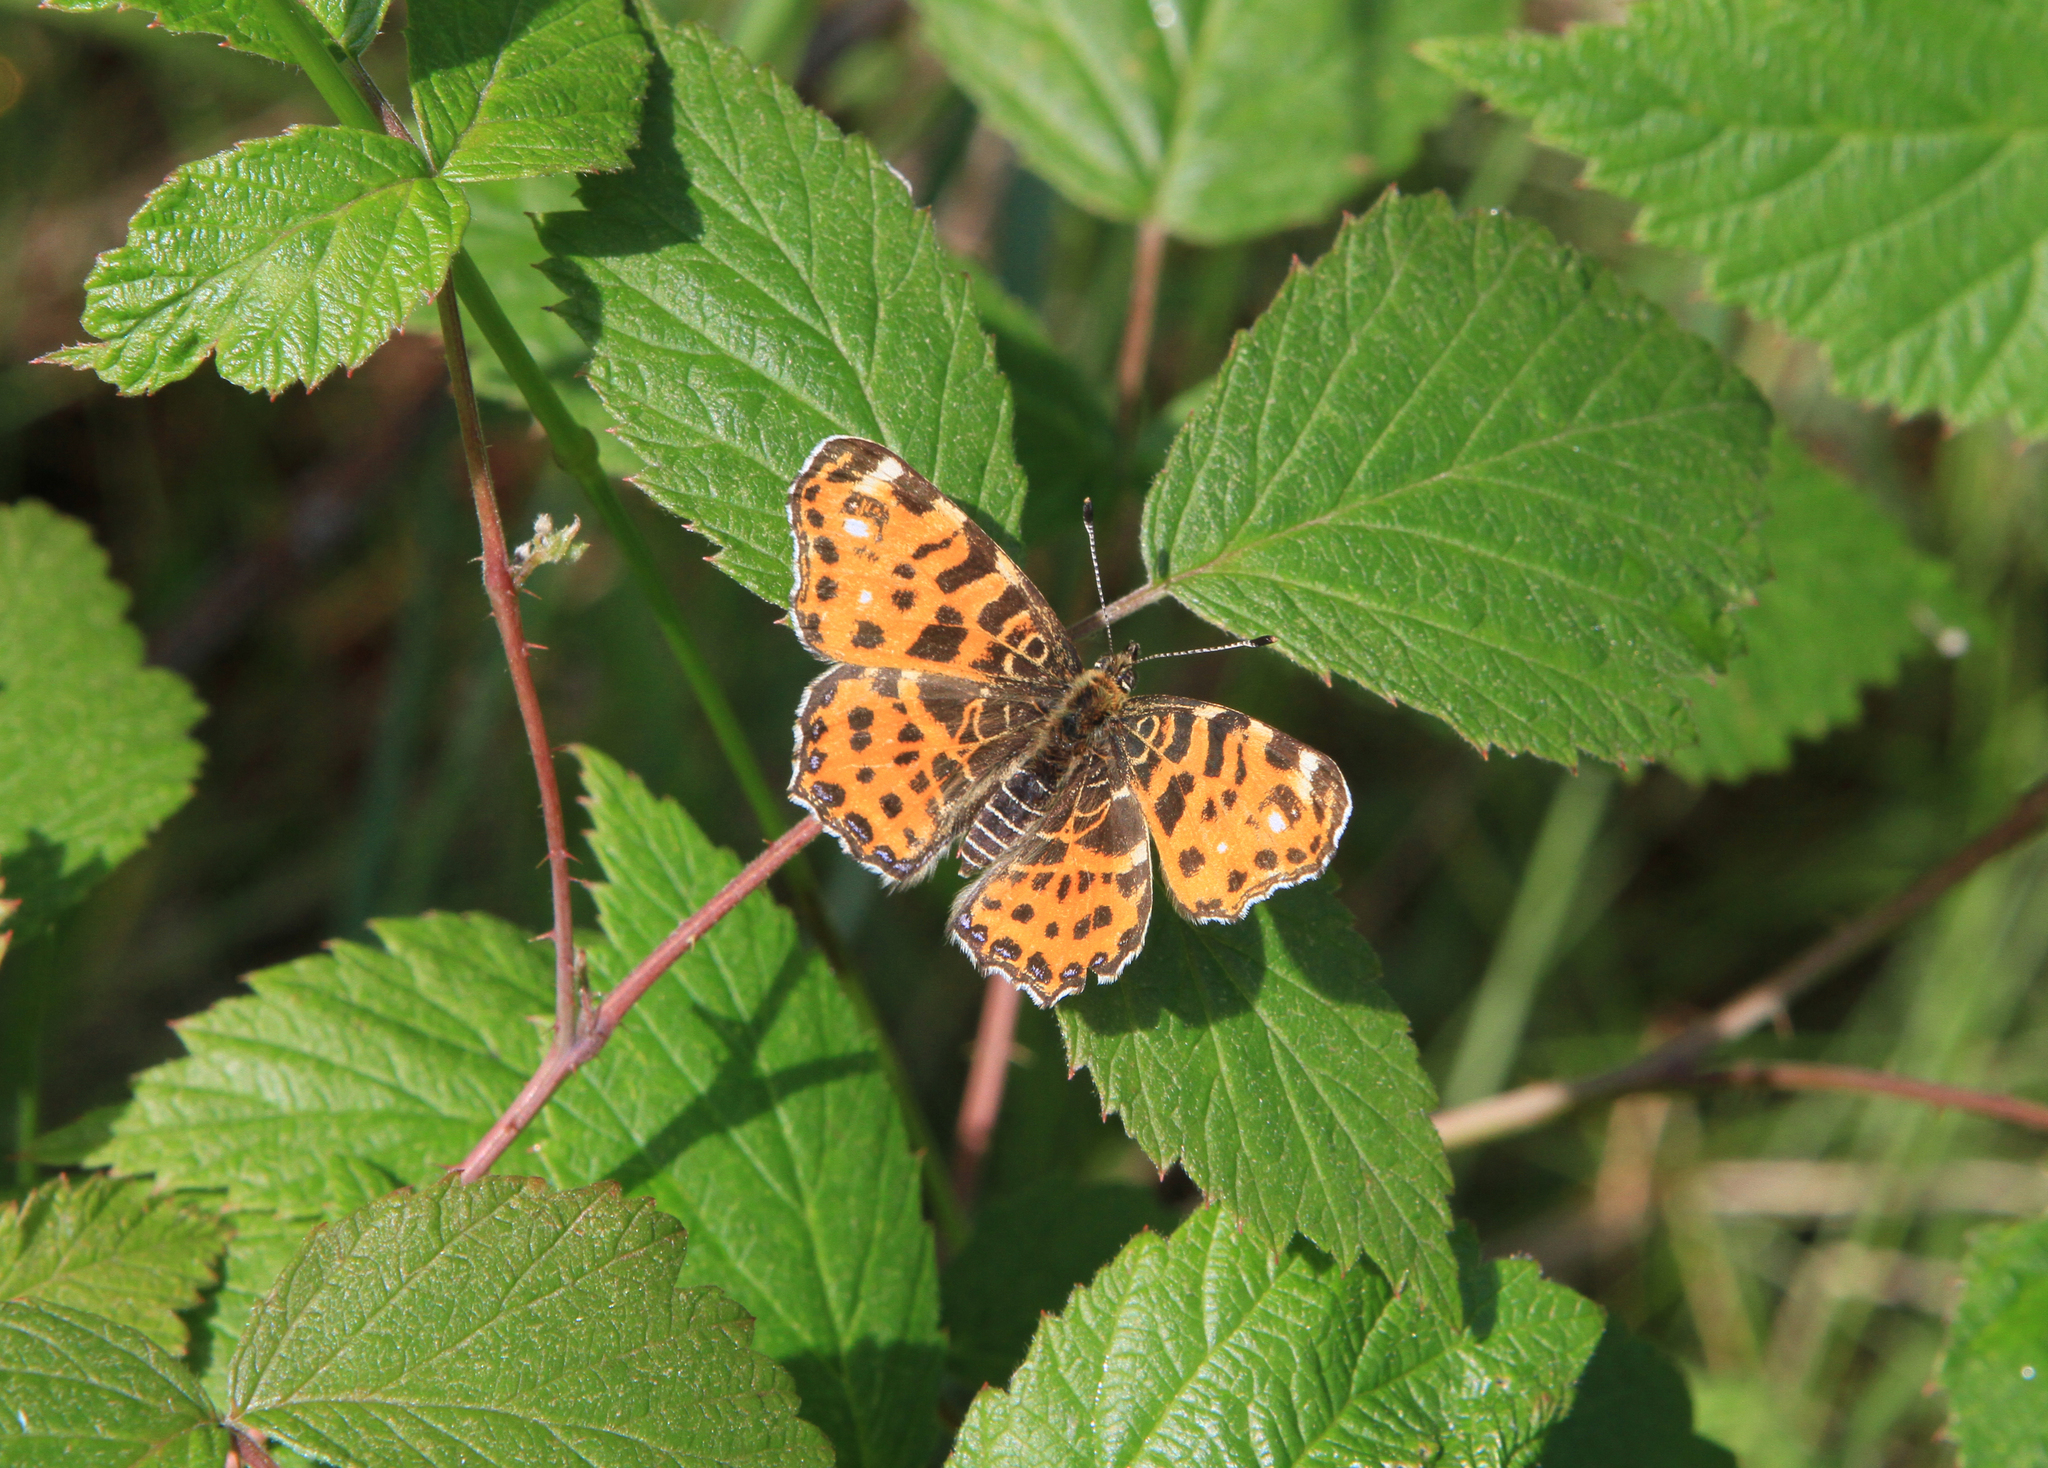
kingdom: Animalia
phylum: Arthropoda
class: Insecta
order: Lepidoptera
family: Nymphalidae
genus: Araschnia
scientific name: Araschnia levana
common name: Map butterfly
